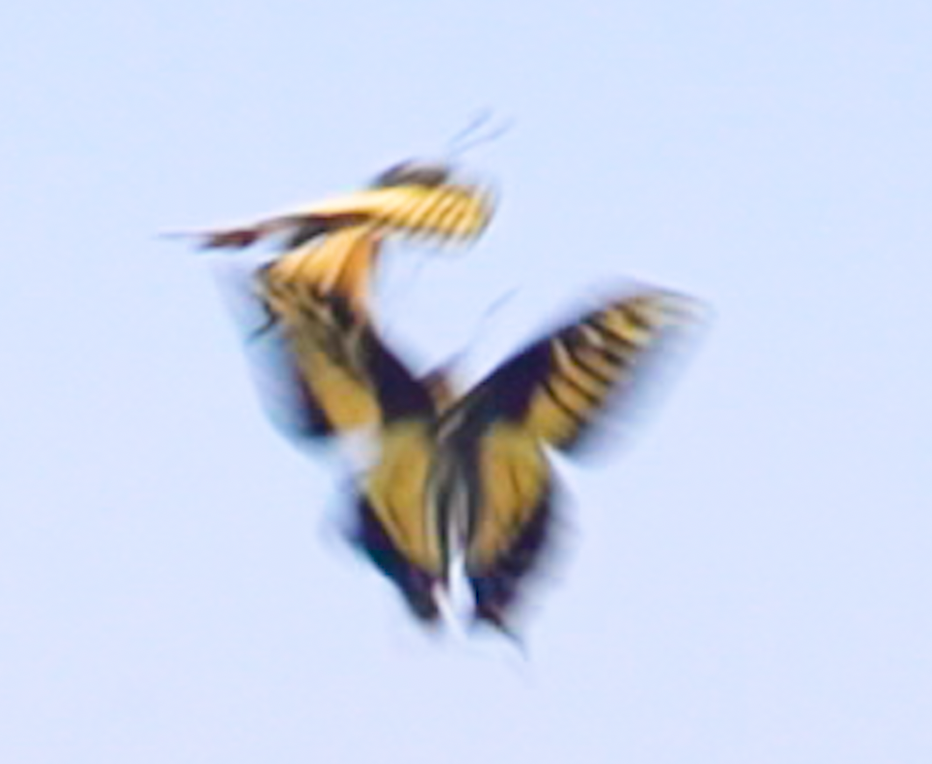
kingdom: Animalia
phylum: Arthropoda
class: Insecta
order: Lepidoptera
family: Papilionidae
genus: Papilio
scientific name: Papilio zelicaon
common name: Anise swallowtail
